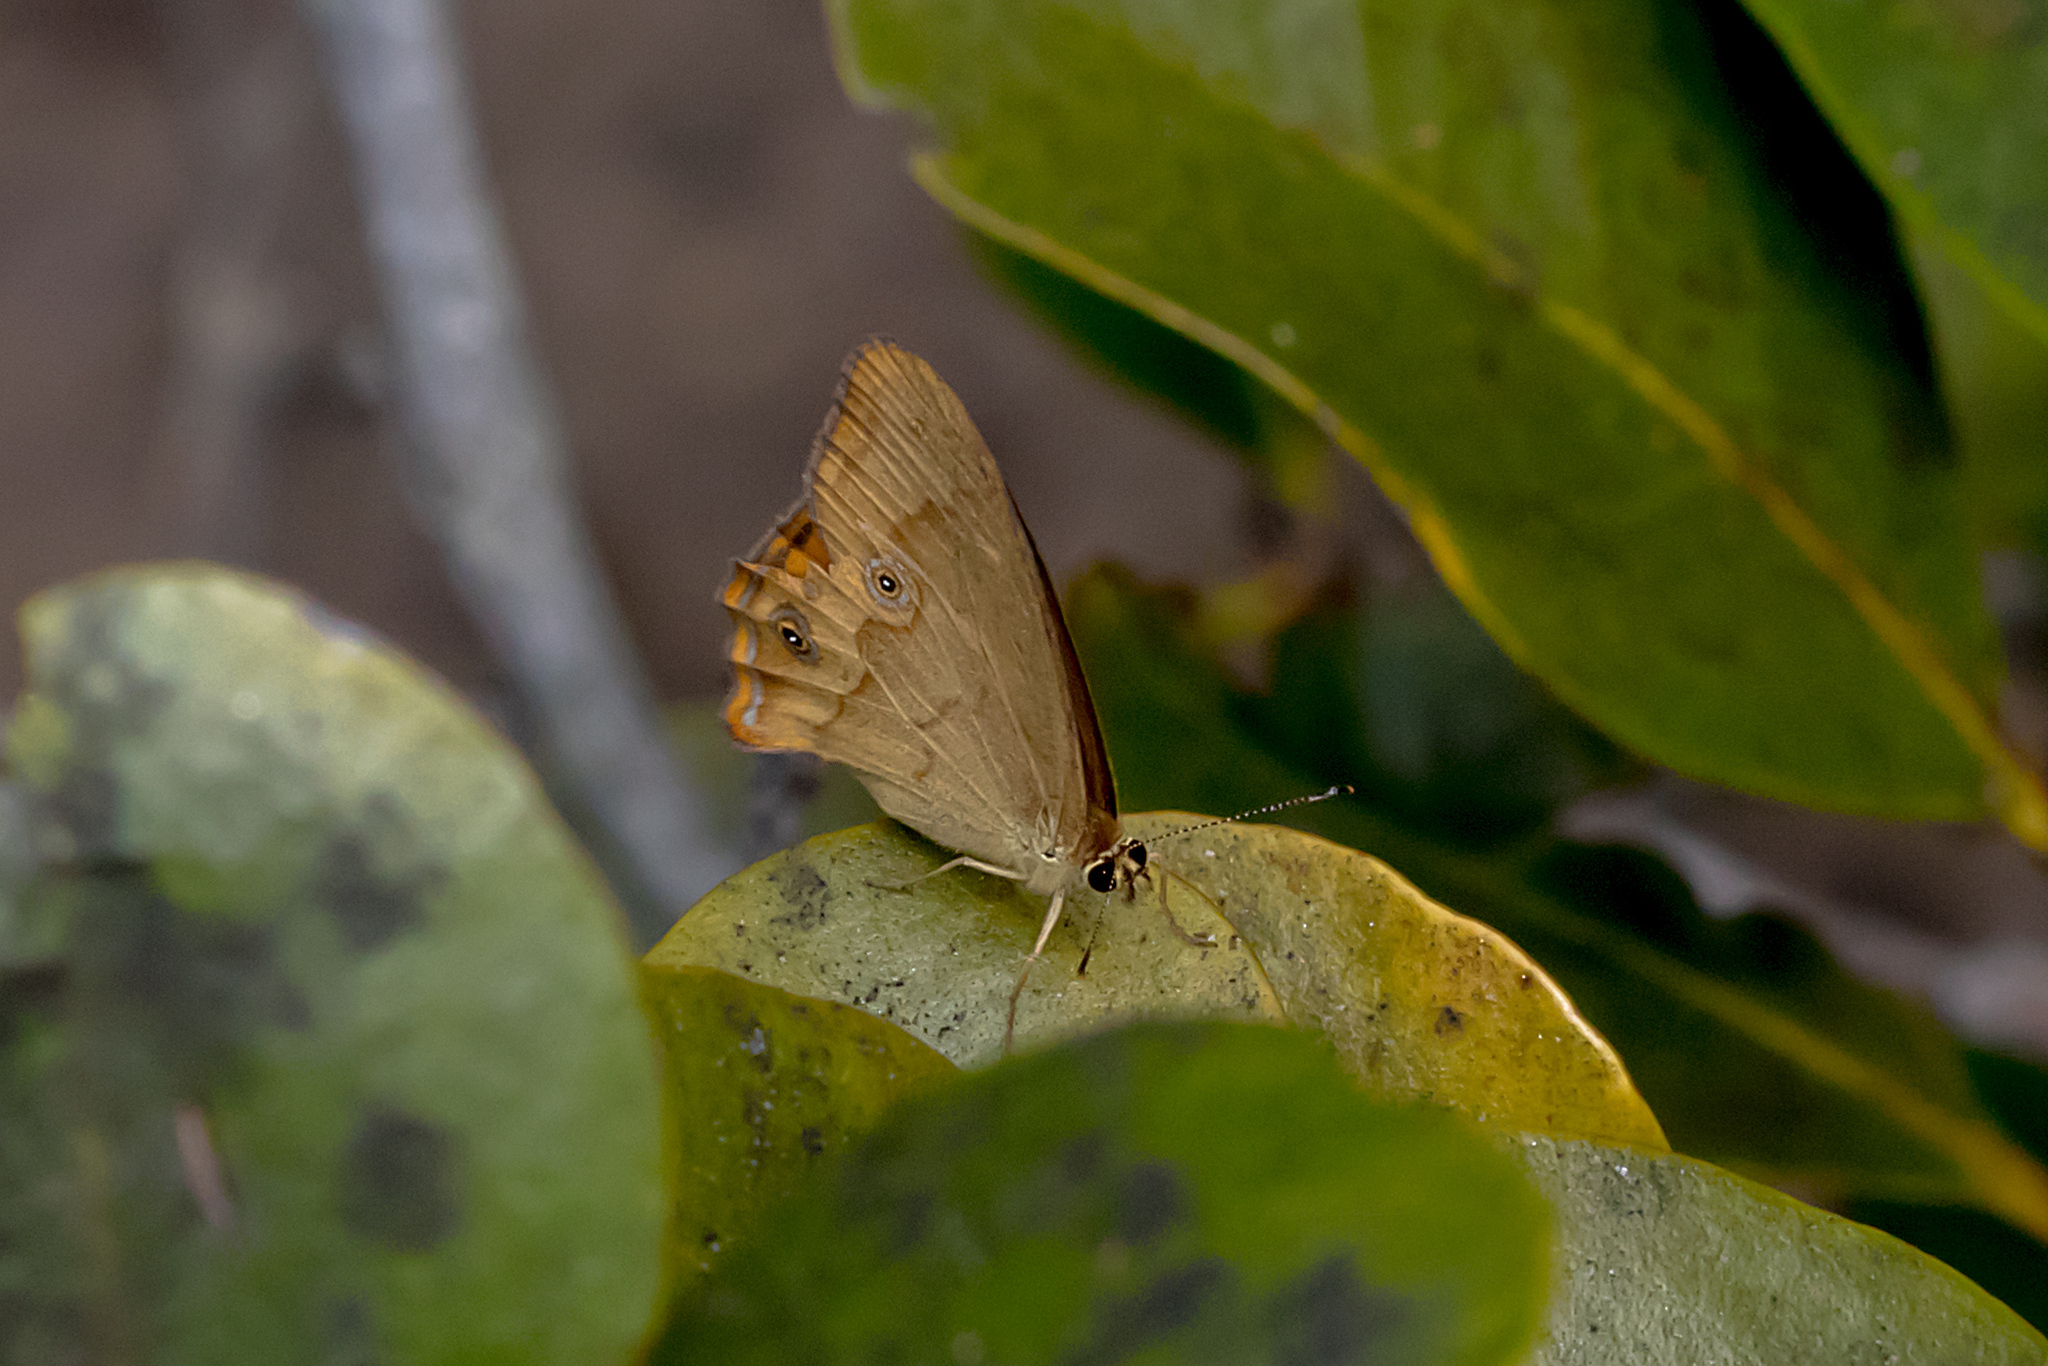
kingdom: Animalia
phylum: Arthropoda
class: Insecta
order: Lepidoptera
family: Nymphalidae
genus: Hypocysta
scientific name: Hypocysta metirius
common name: Brown ringlet
